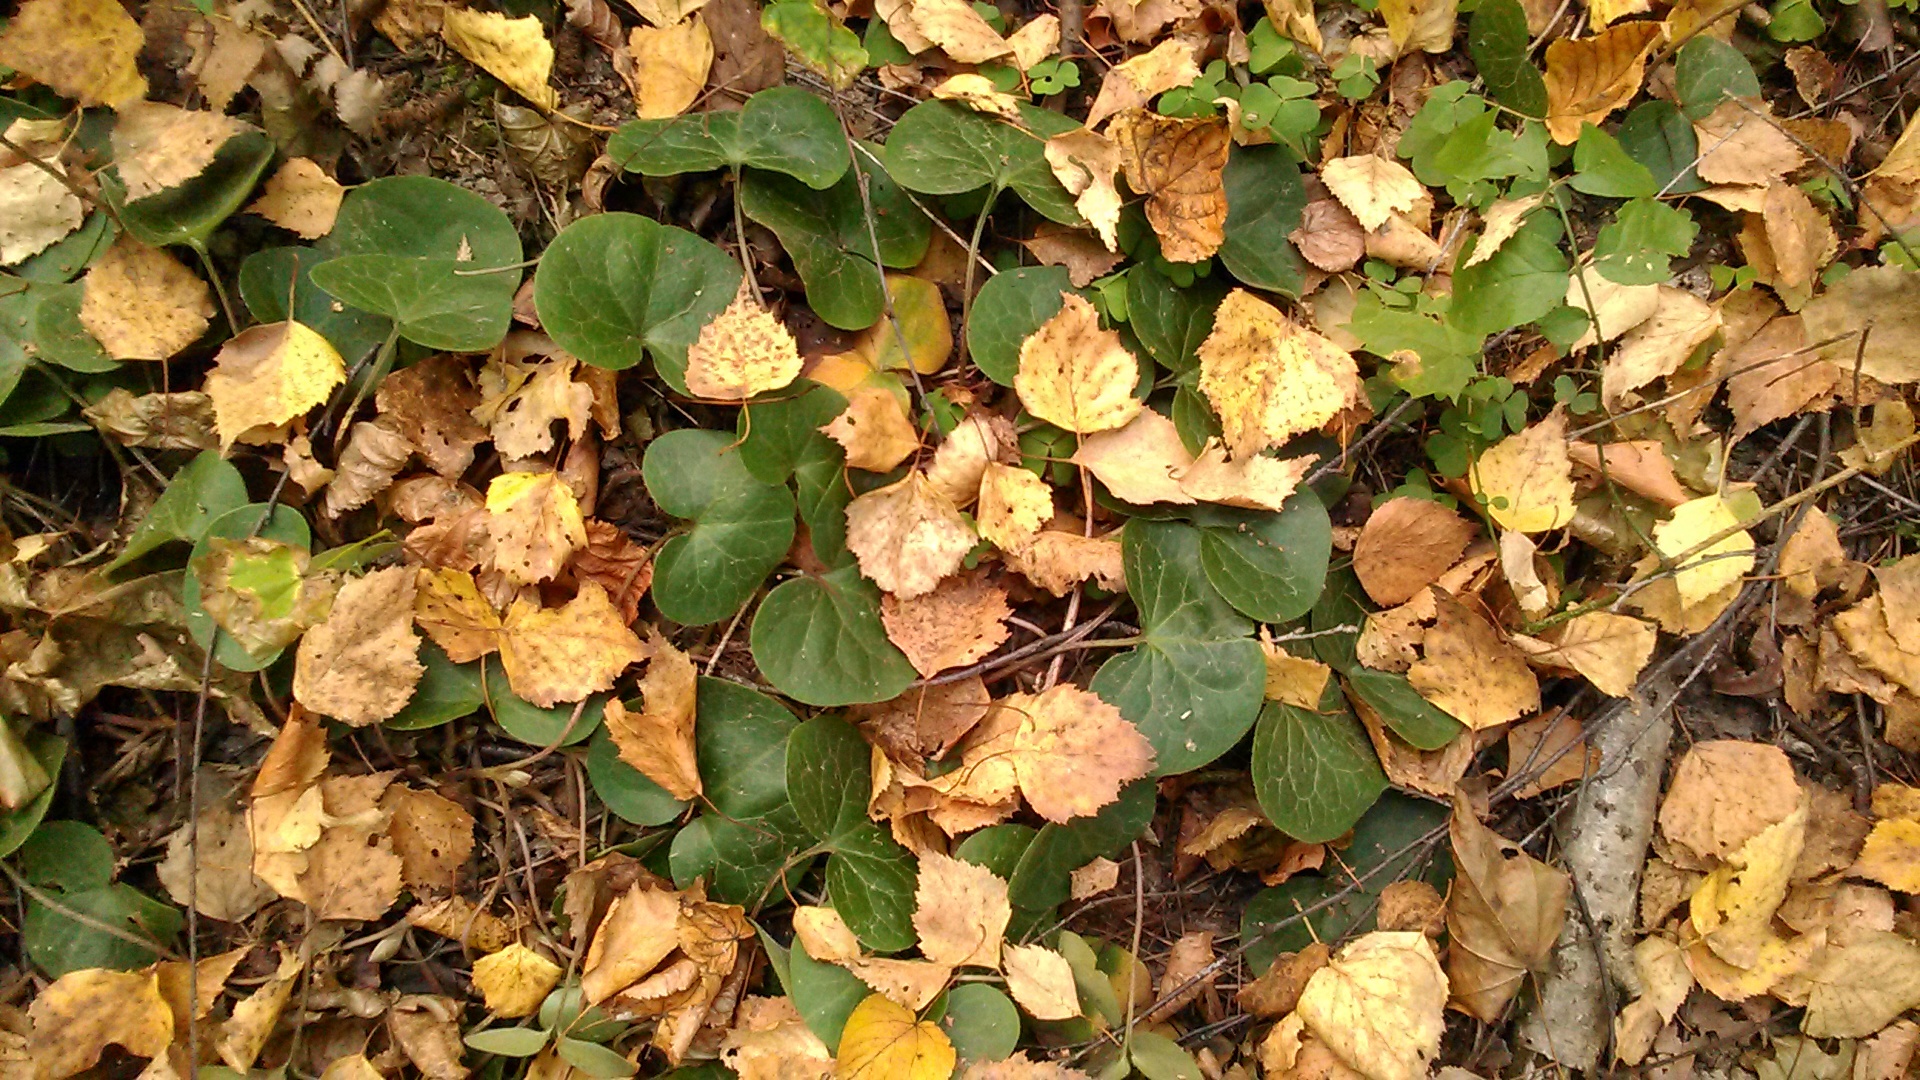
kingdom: Plantae
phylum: Tracheophyta
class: Magnoliopsida
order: Piperales
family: Aristolochiaceae
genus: Asarum
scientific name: Asarum europaeum
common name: Asarabacca
